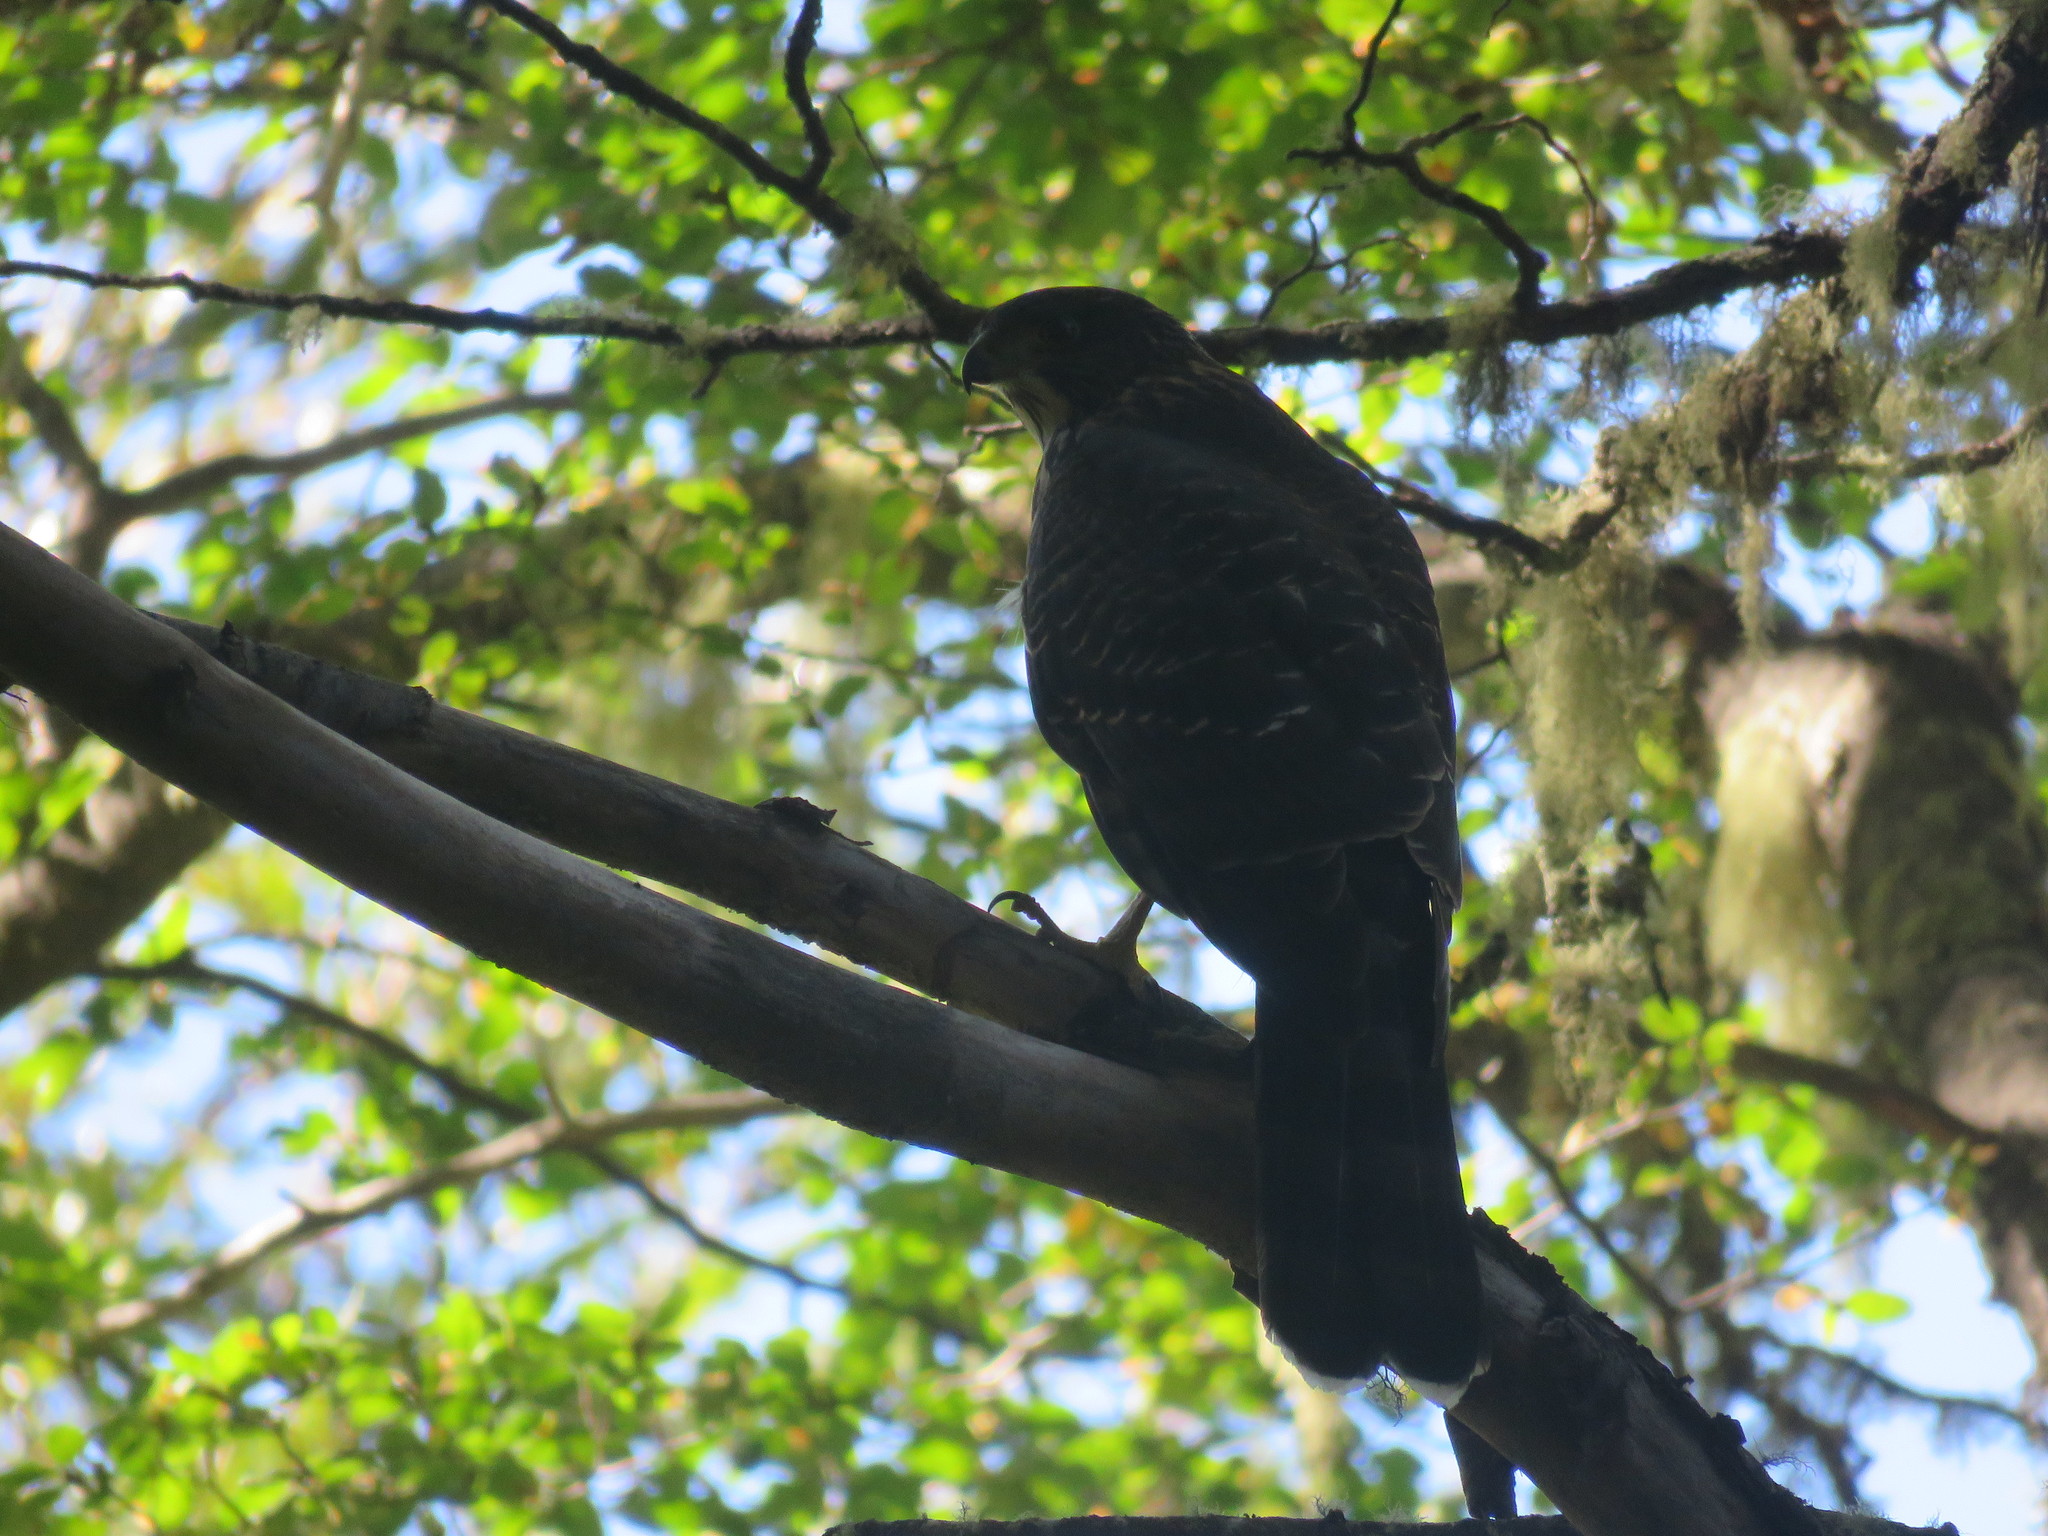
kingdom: Animalia
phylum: Chordata
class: Aves
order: Accipitriformes
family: Accipitridae
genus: Accipiter
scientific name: Accipiter chilensis
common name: Chilean hawk
